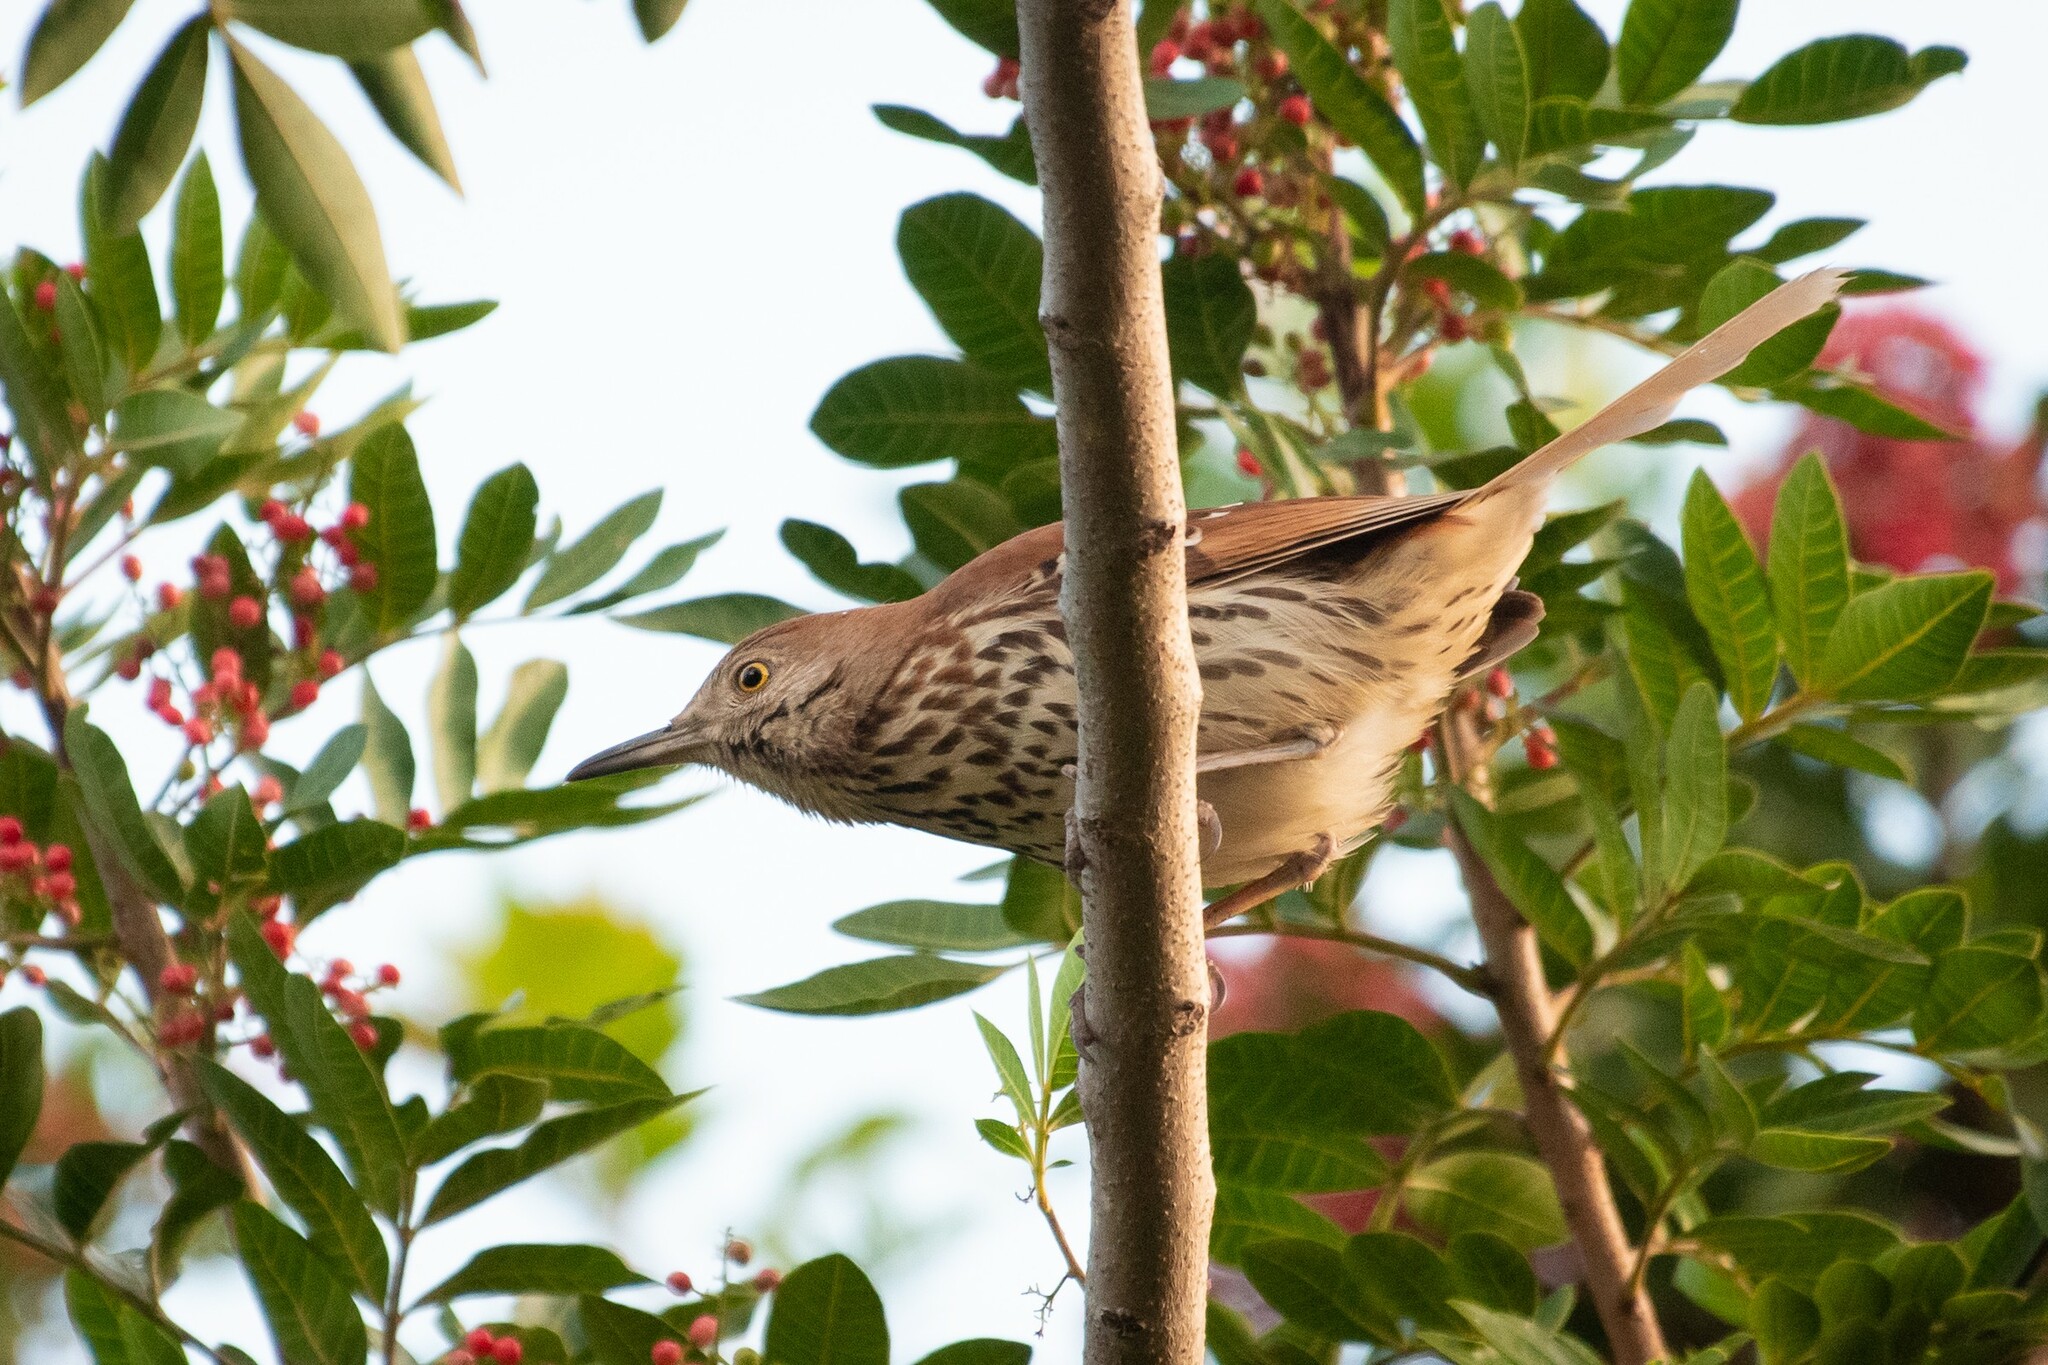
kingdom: Animalia
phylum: Chordata
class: Aves
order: Passeriformes
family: Mimidae
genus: Toxostoma
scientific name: Toxostoma rufum
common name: Brown thrasher
